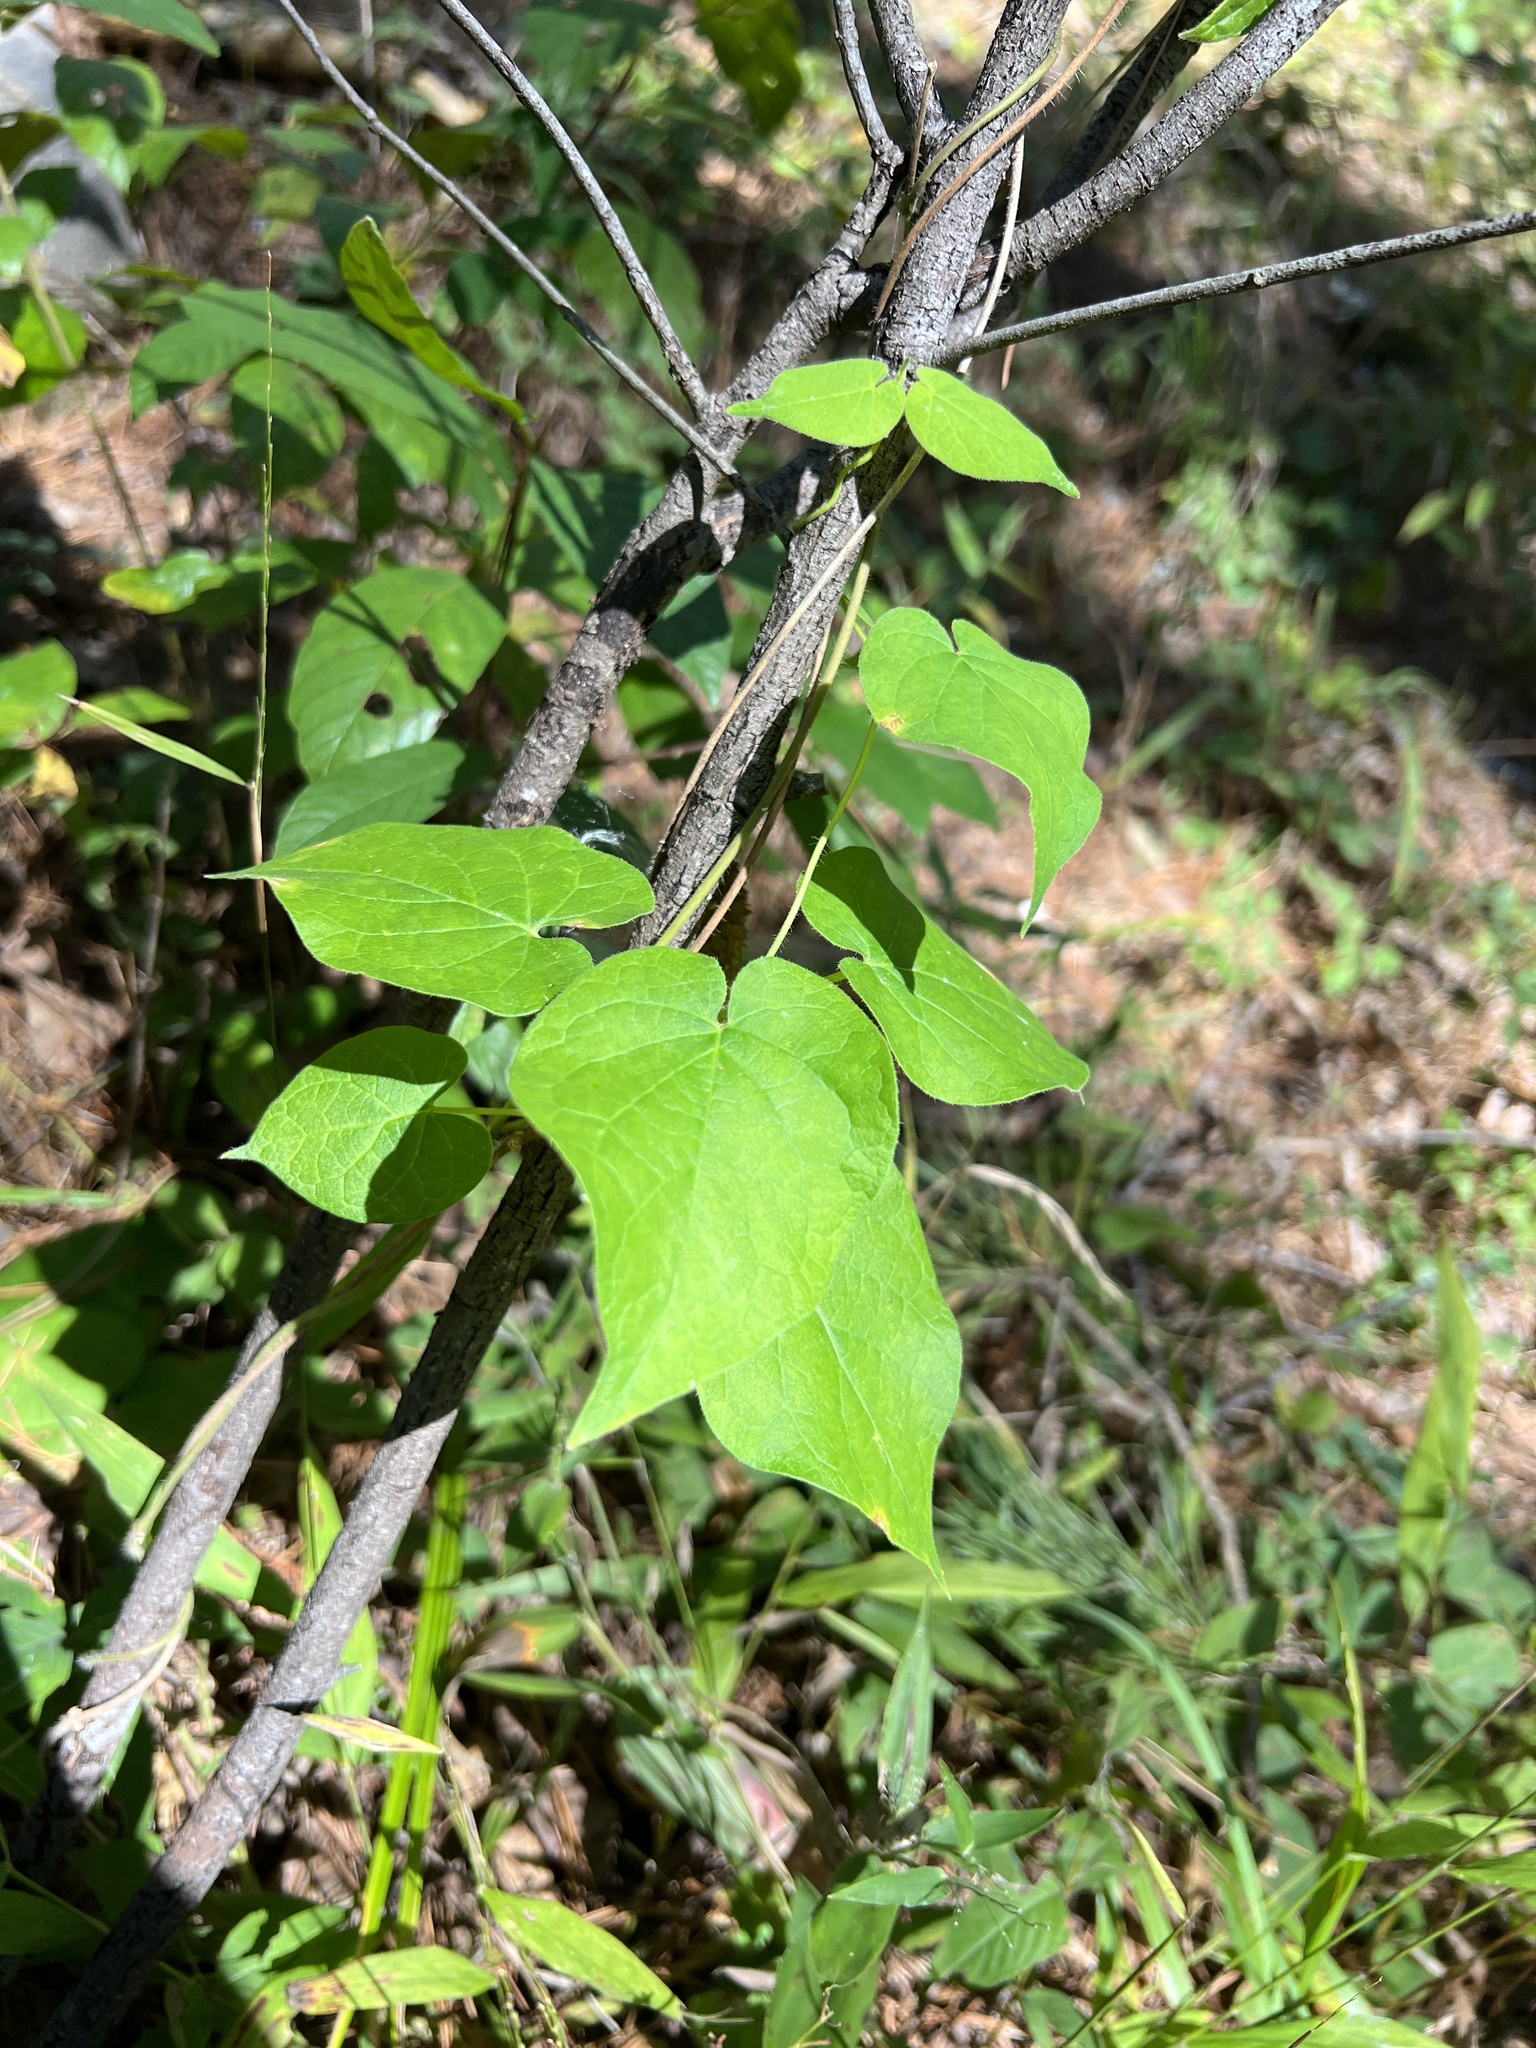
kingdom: Plantae
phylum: Tracheophyta
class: Magnoliopsida
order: Gentianales
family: Apocynaceae
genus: Matelea
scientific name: Matelea decipiens
